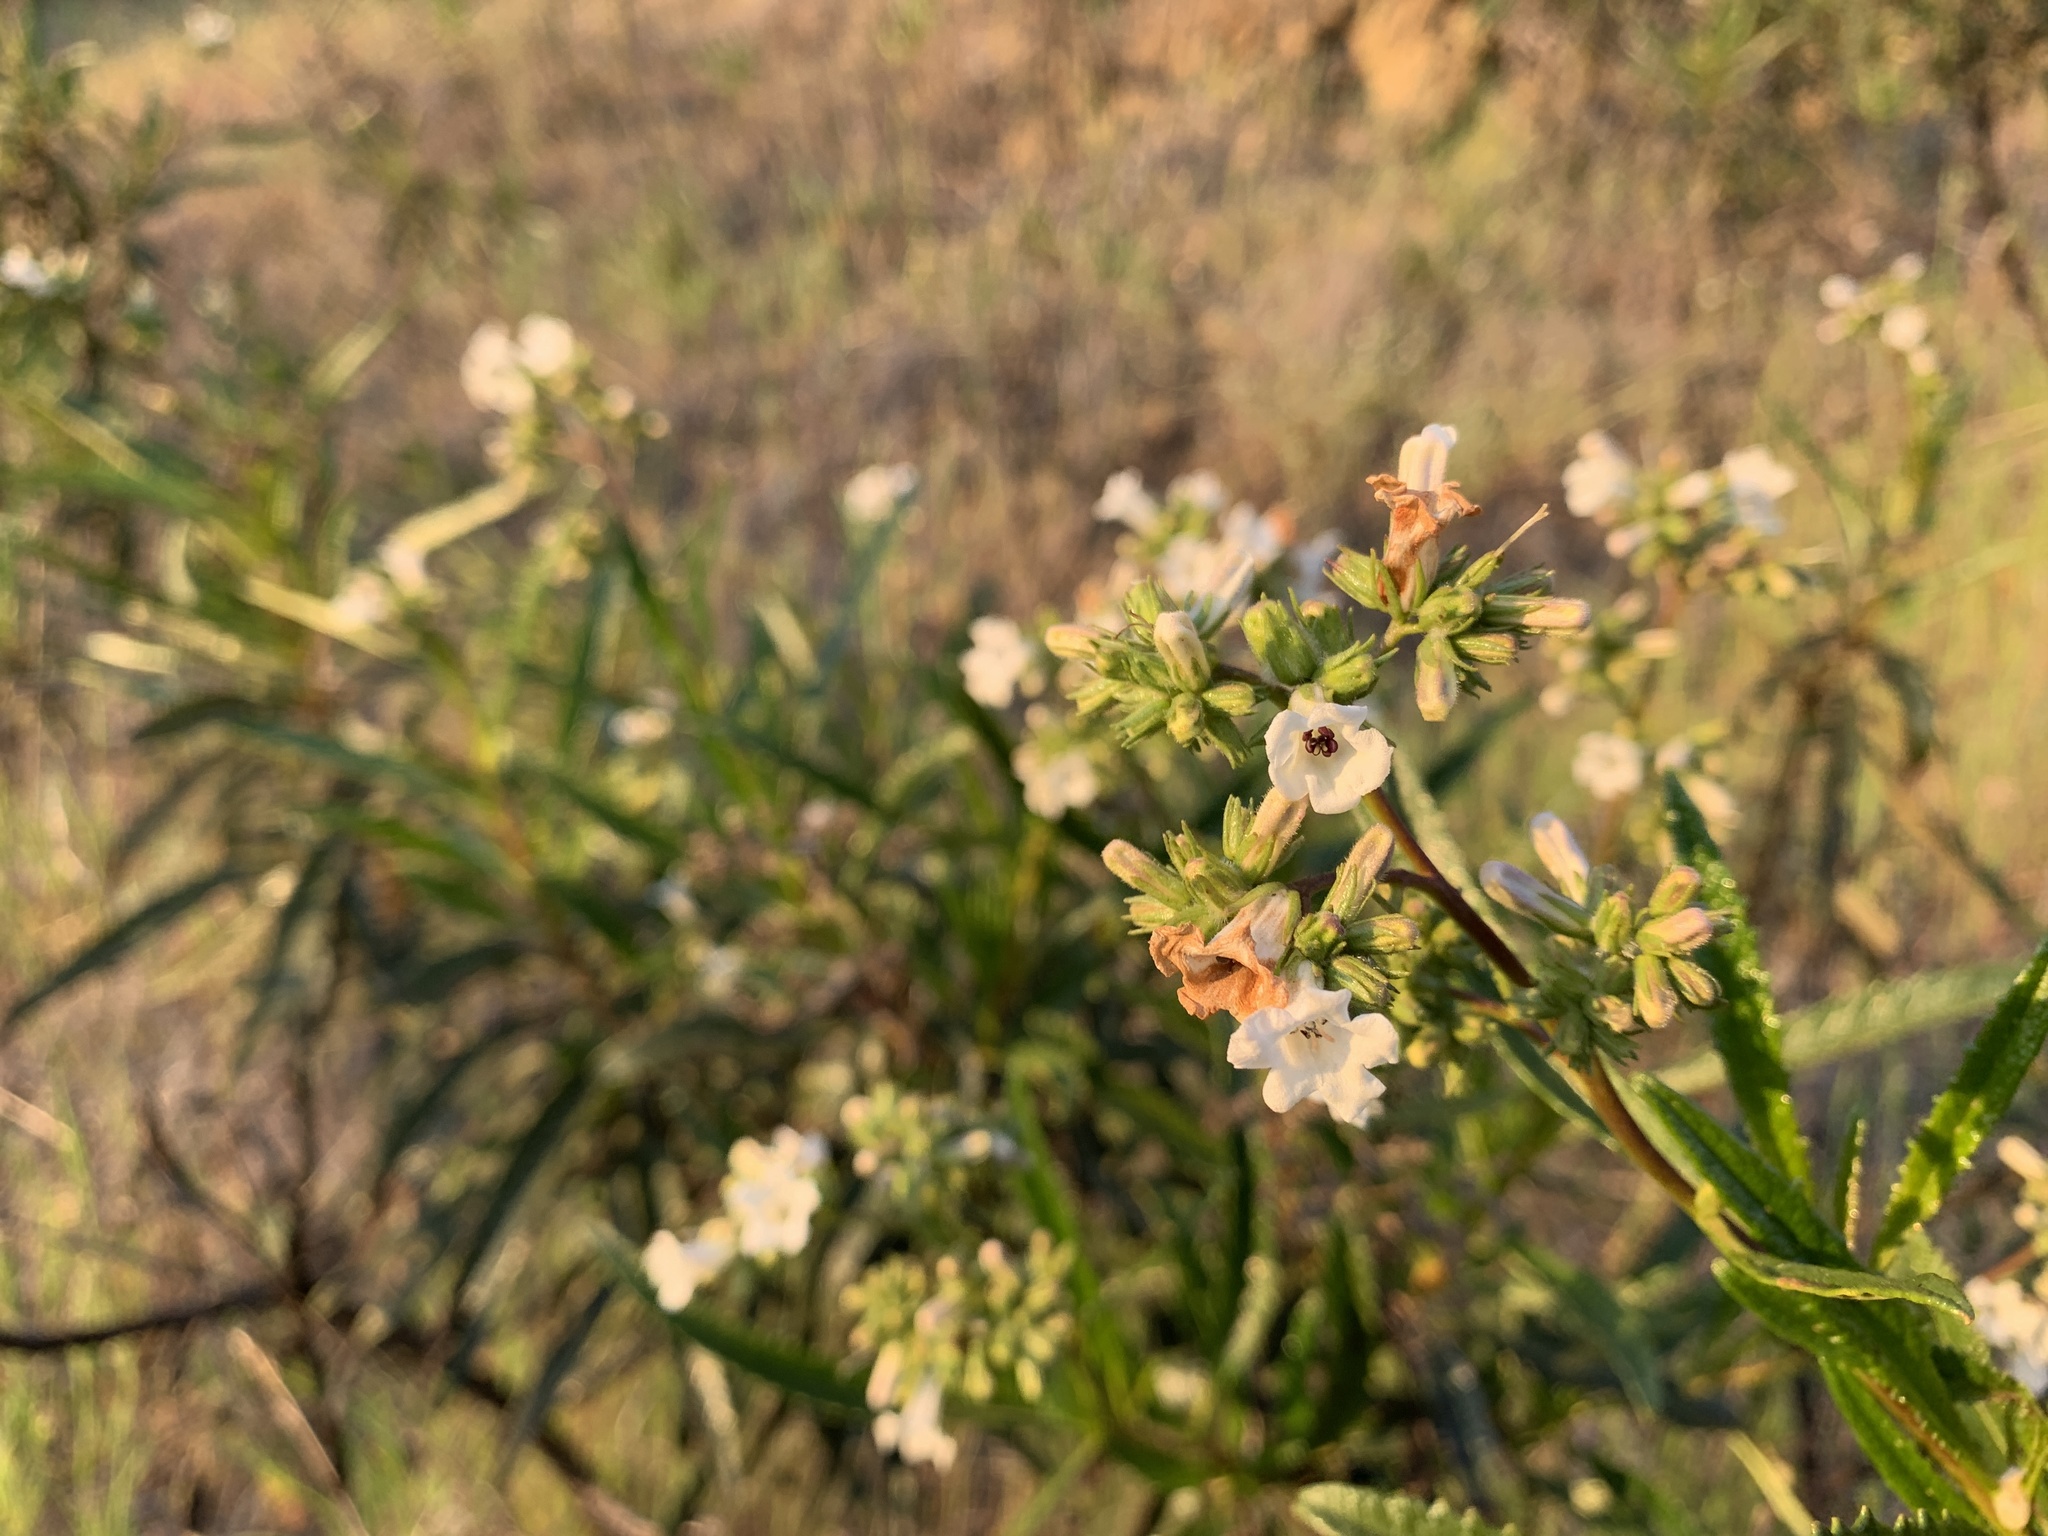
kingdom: Plantae
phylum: Tracheophyta
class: Magnoliopsida
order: Boraginales
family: Namaceae
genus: Eriodictyon
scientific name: Eriodictyon californicum
